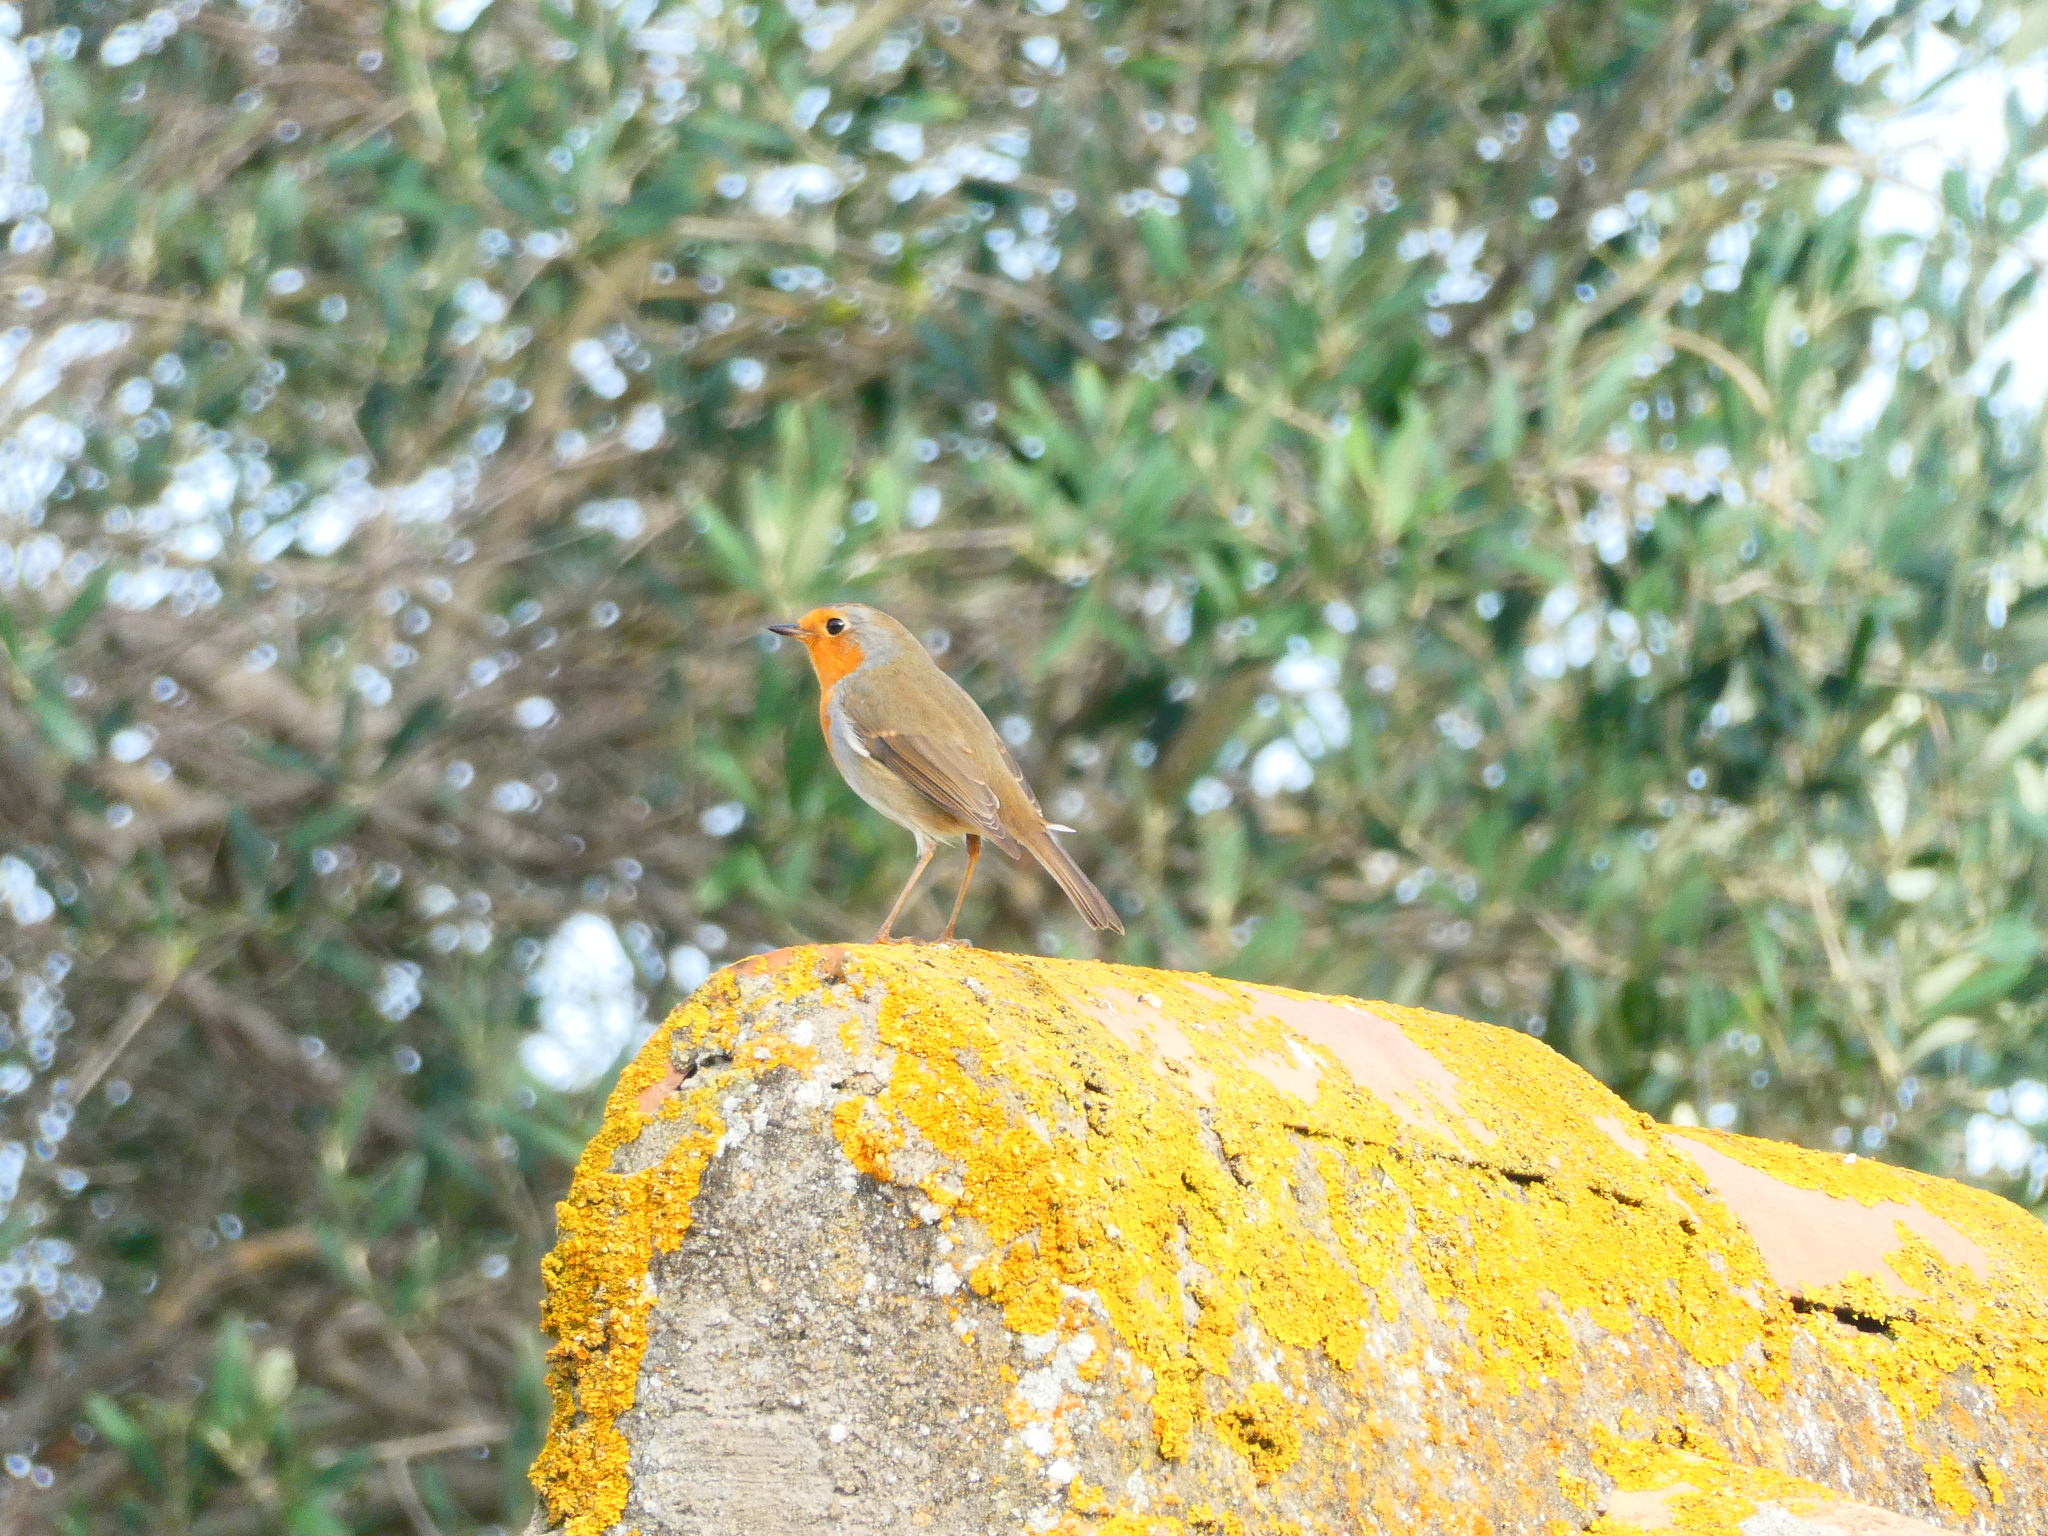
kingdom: Animalia
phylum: Chordata
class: Aves
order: Passeriformes
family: Muscicapidae
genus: Erithacus
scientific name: Erithacus rubecula
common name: European robin
